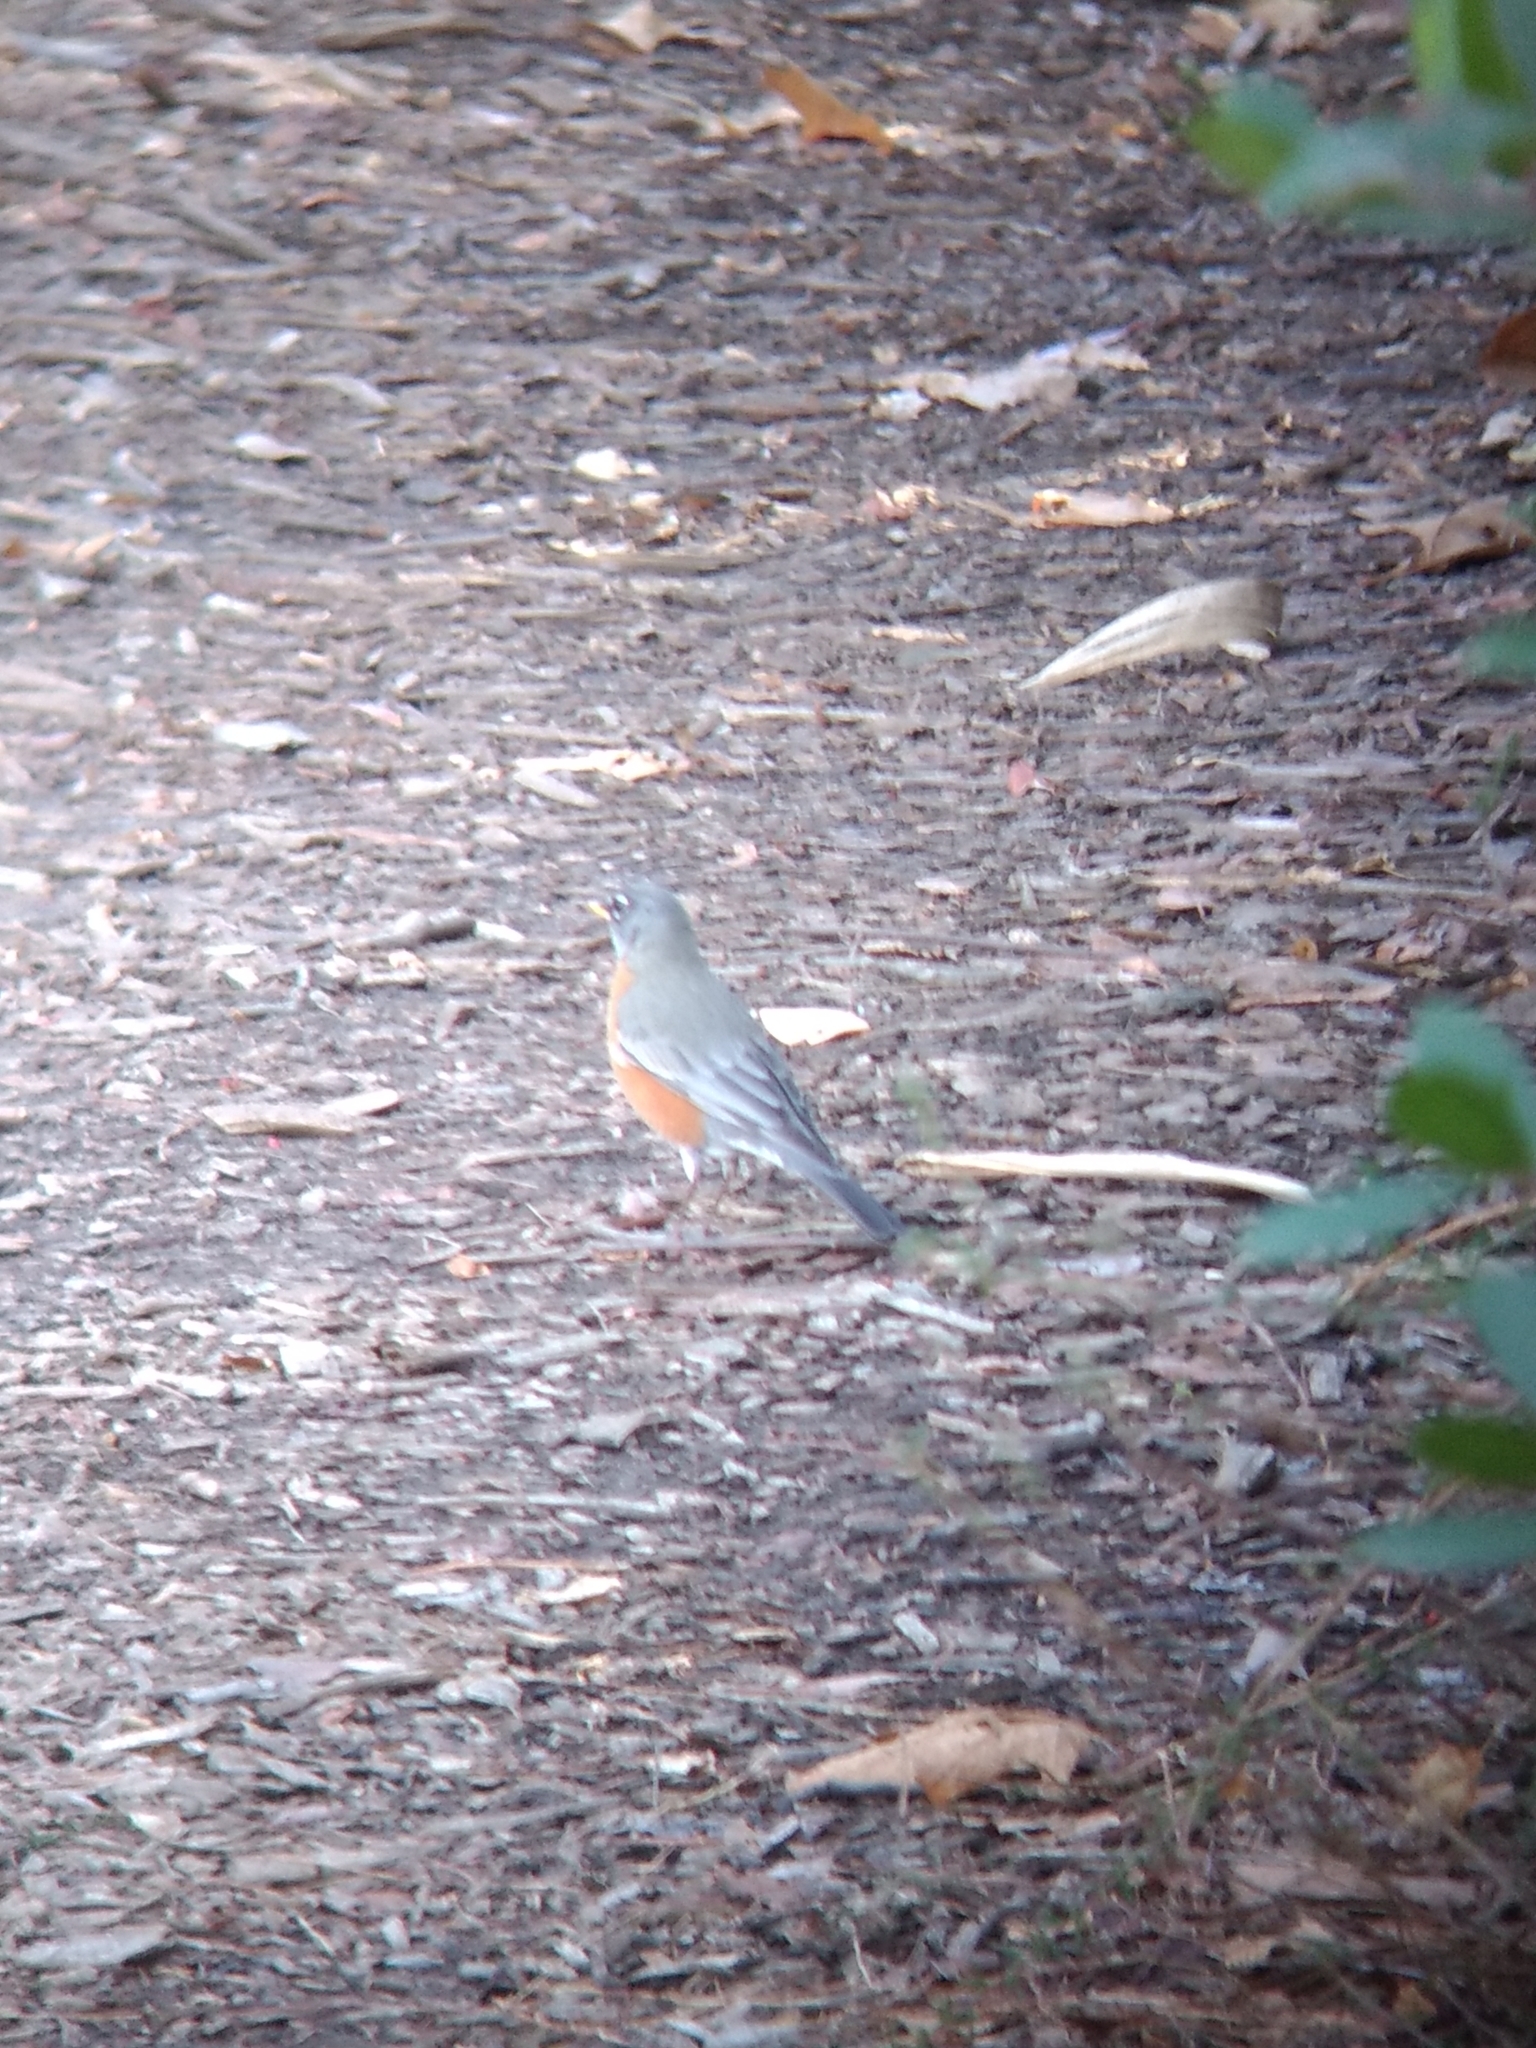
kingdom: Animalia
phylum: Chordata
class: Aves
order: Passeriformes
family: Turdidae
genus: Turdus
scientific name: Turdus migratorius
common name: American robin
